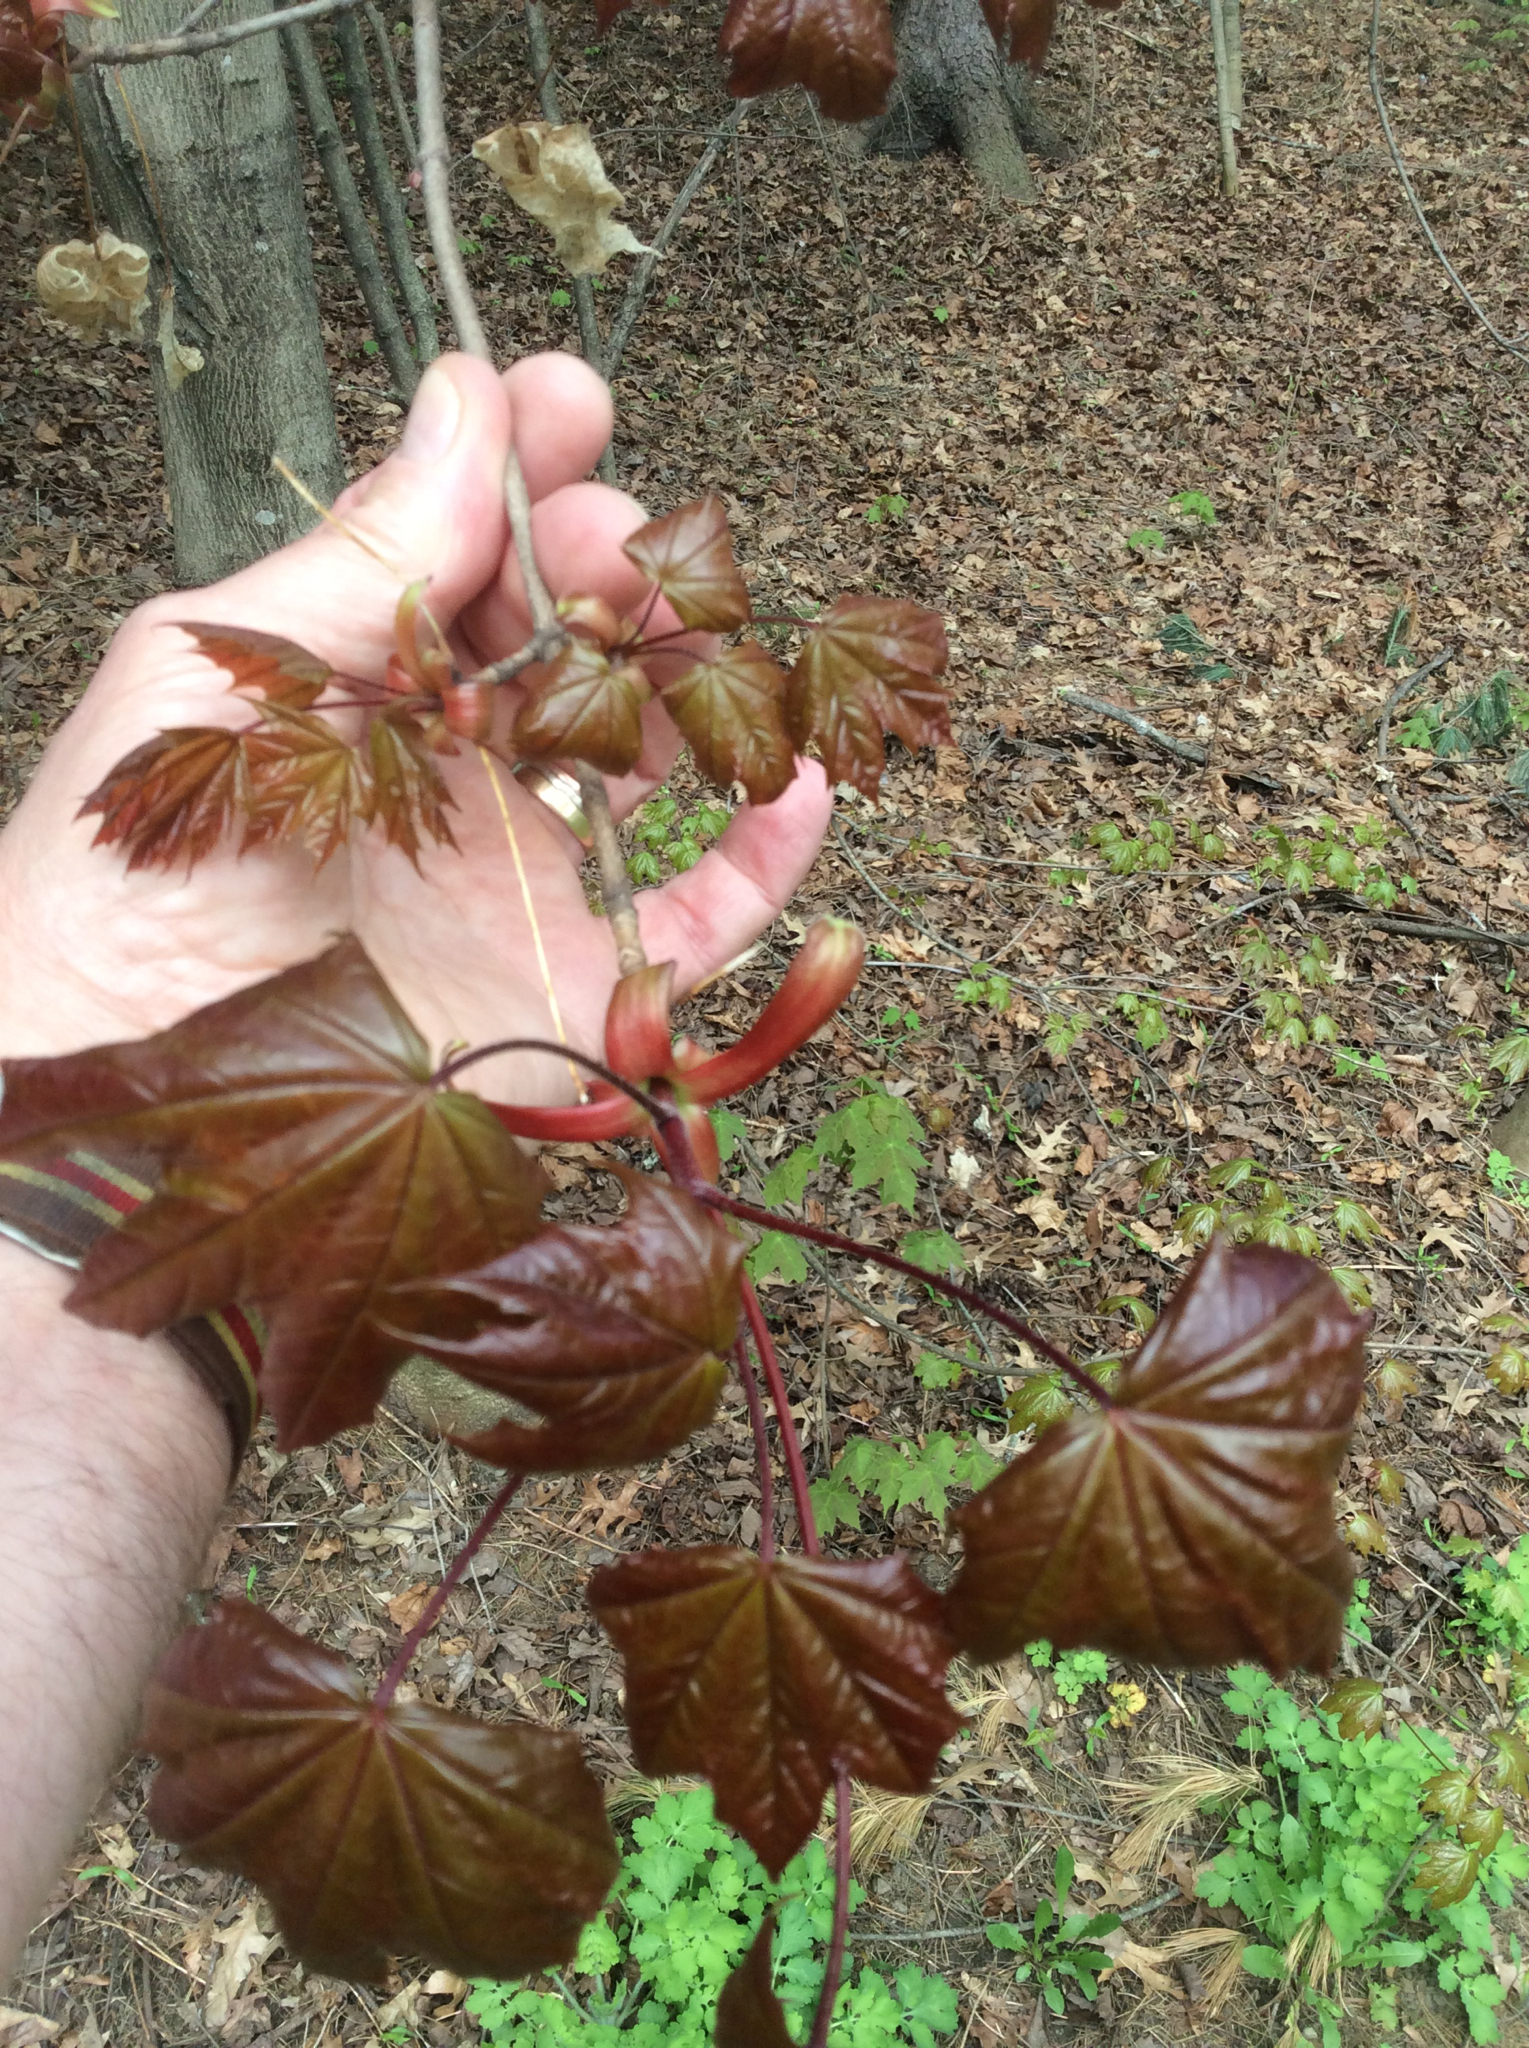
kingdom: Plantae
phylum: Tracheophyta
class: Magnoliopsida
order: Sapindales
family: Sapindaceae
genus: Acer
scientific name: Acer platanoides
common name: Norway maple
